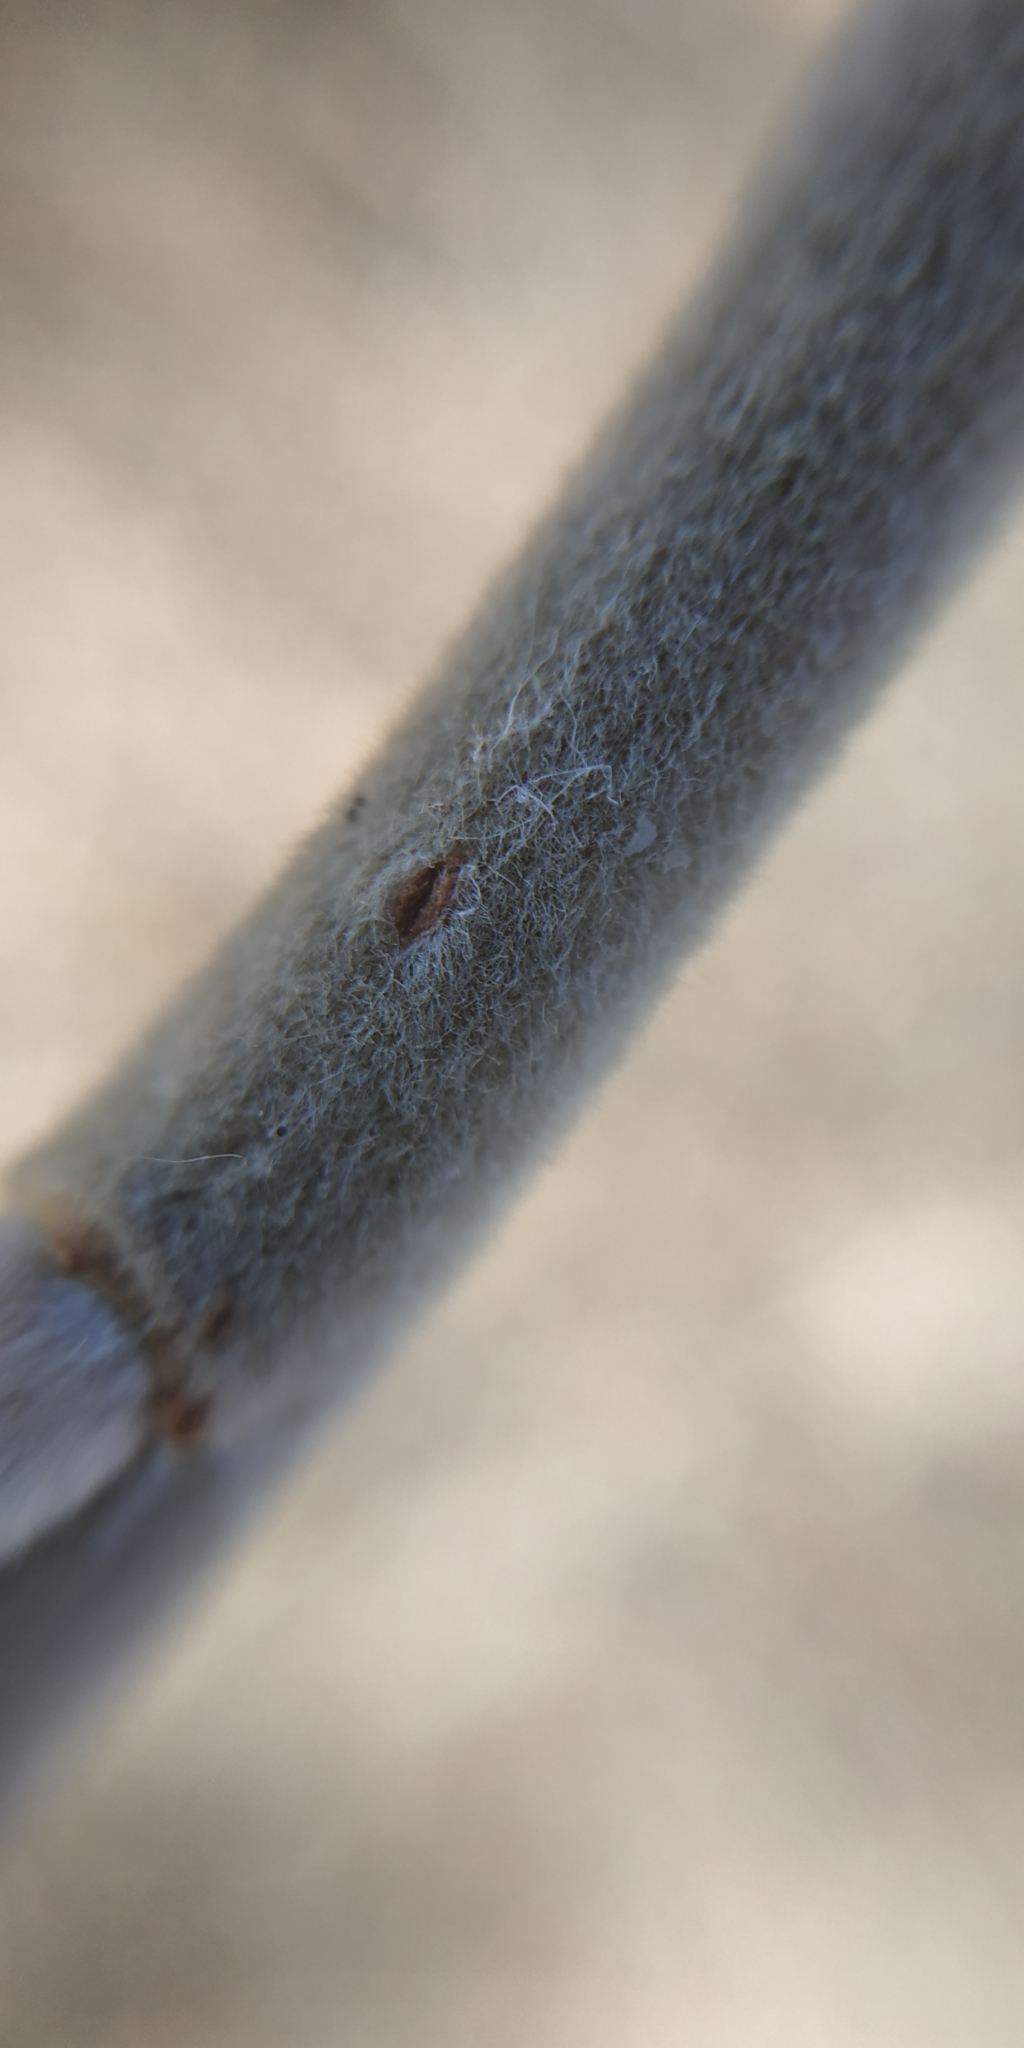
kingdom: Plantae
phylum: Tracheophyta
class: Magnoliopsida
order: Malpighiales
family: Salicaceae
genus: Salix
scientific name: Salix cinerea
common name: Common sallow
